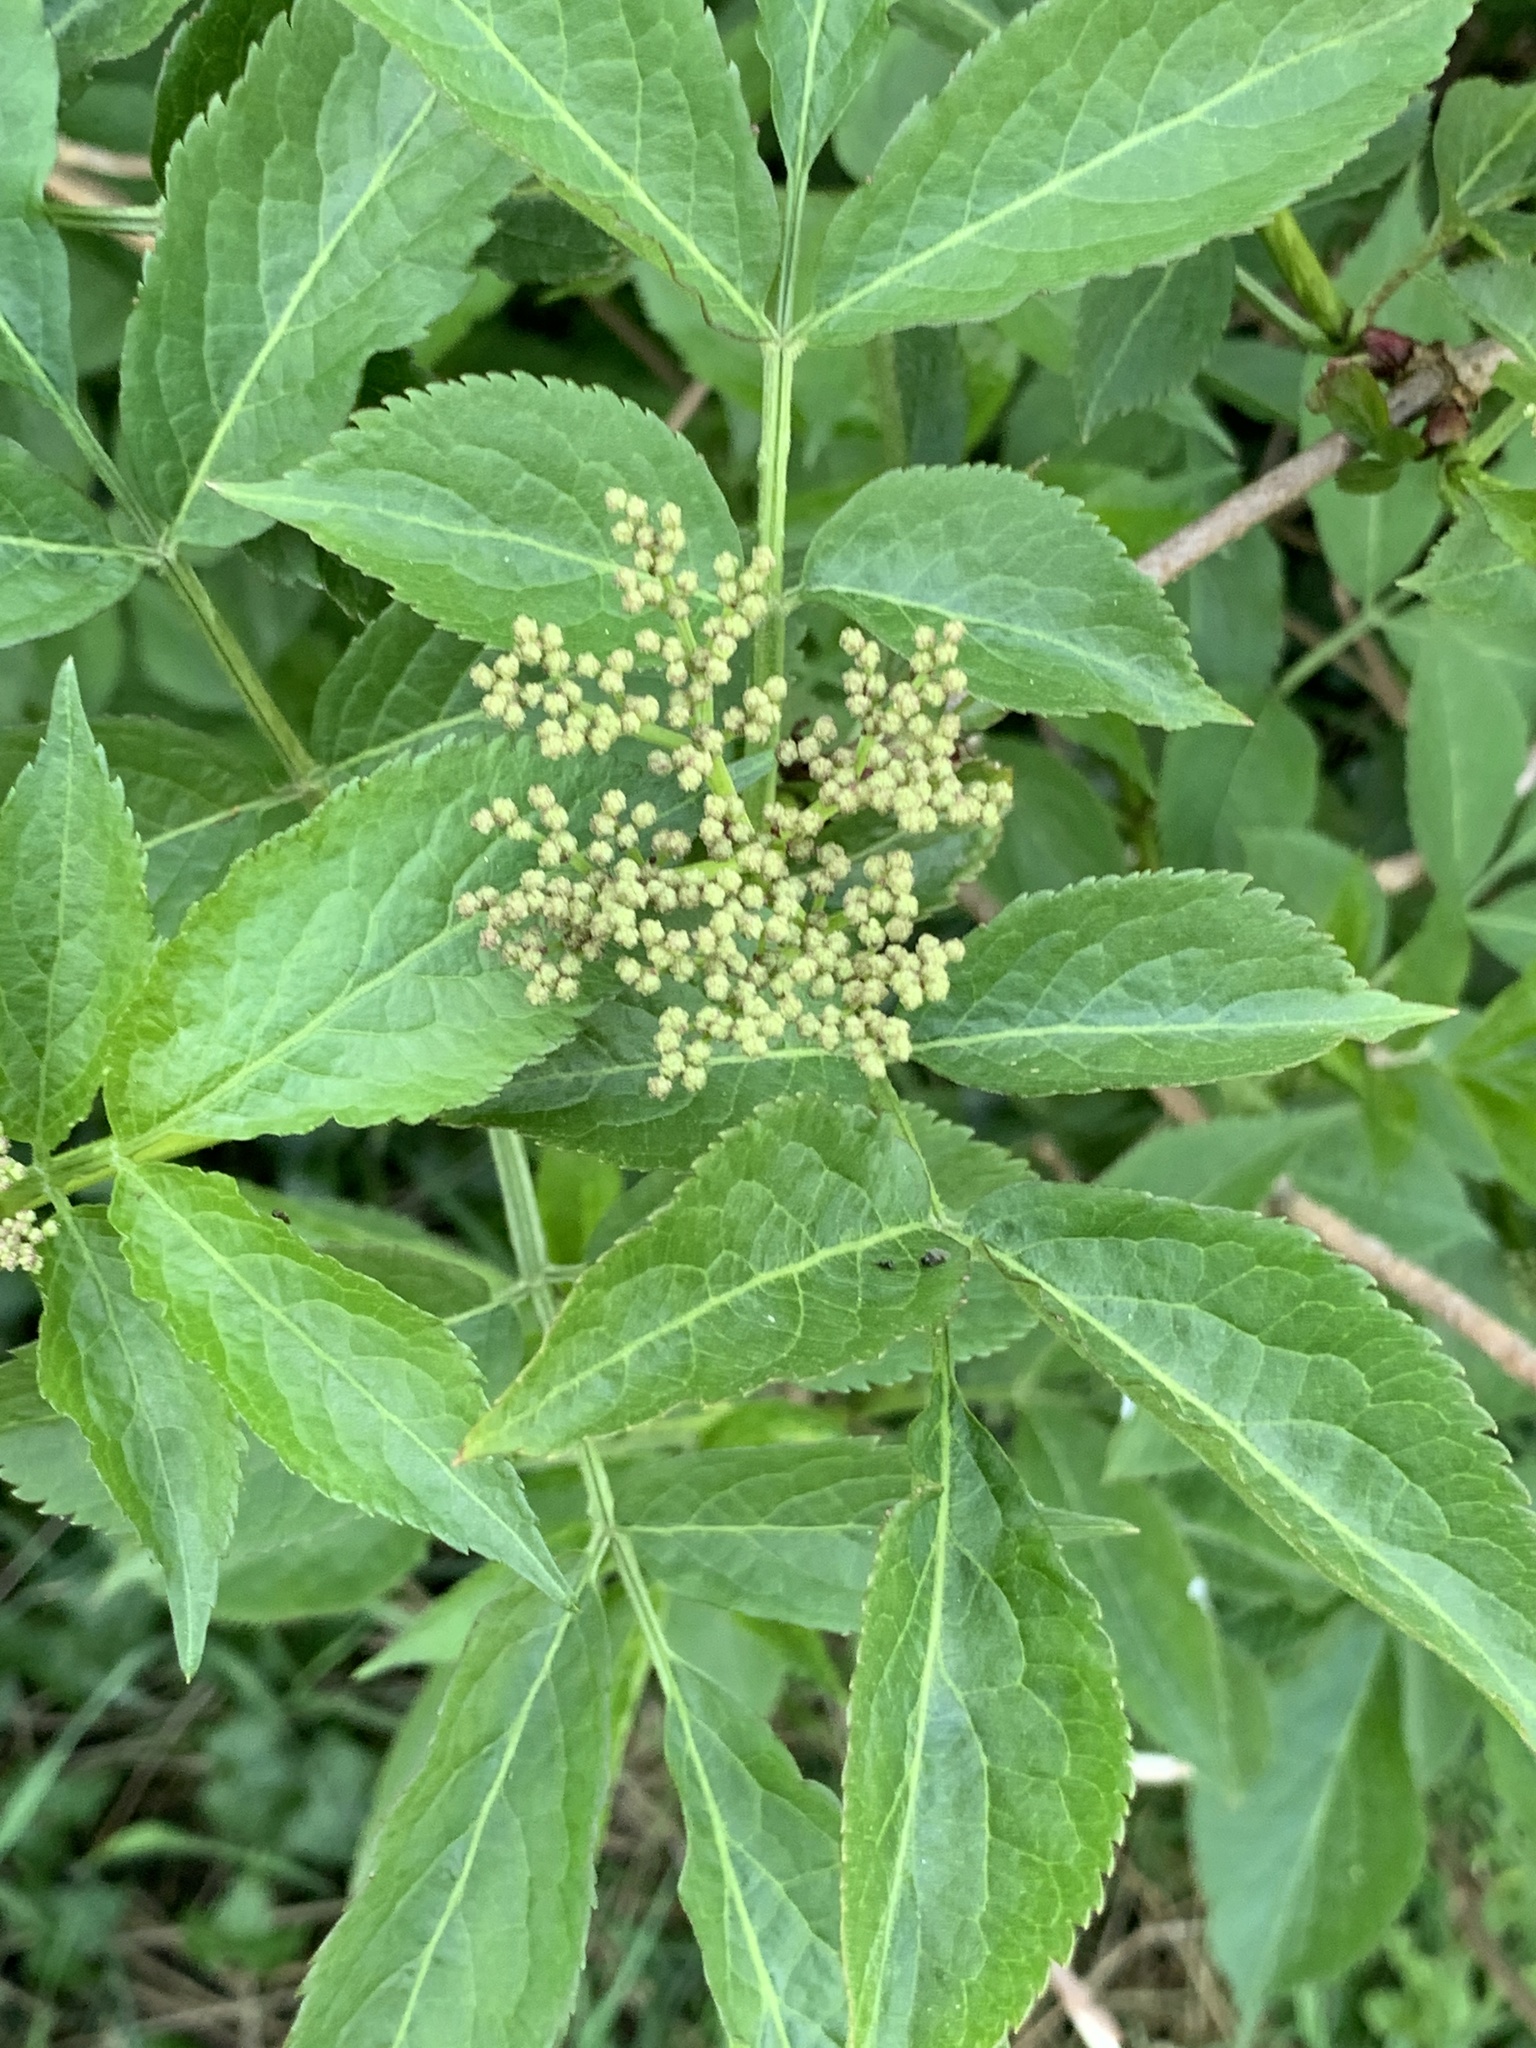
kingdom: Plantae
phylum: Tracheophyta
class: Magnoliopsida
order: Dipsacales
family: Viburnaceae
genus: Sambucus
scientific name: Sambucus nigra
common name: Elder
